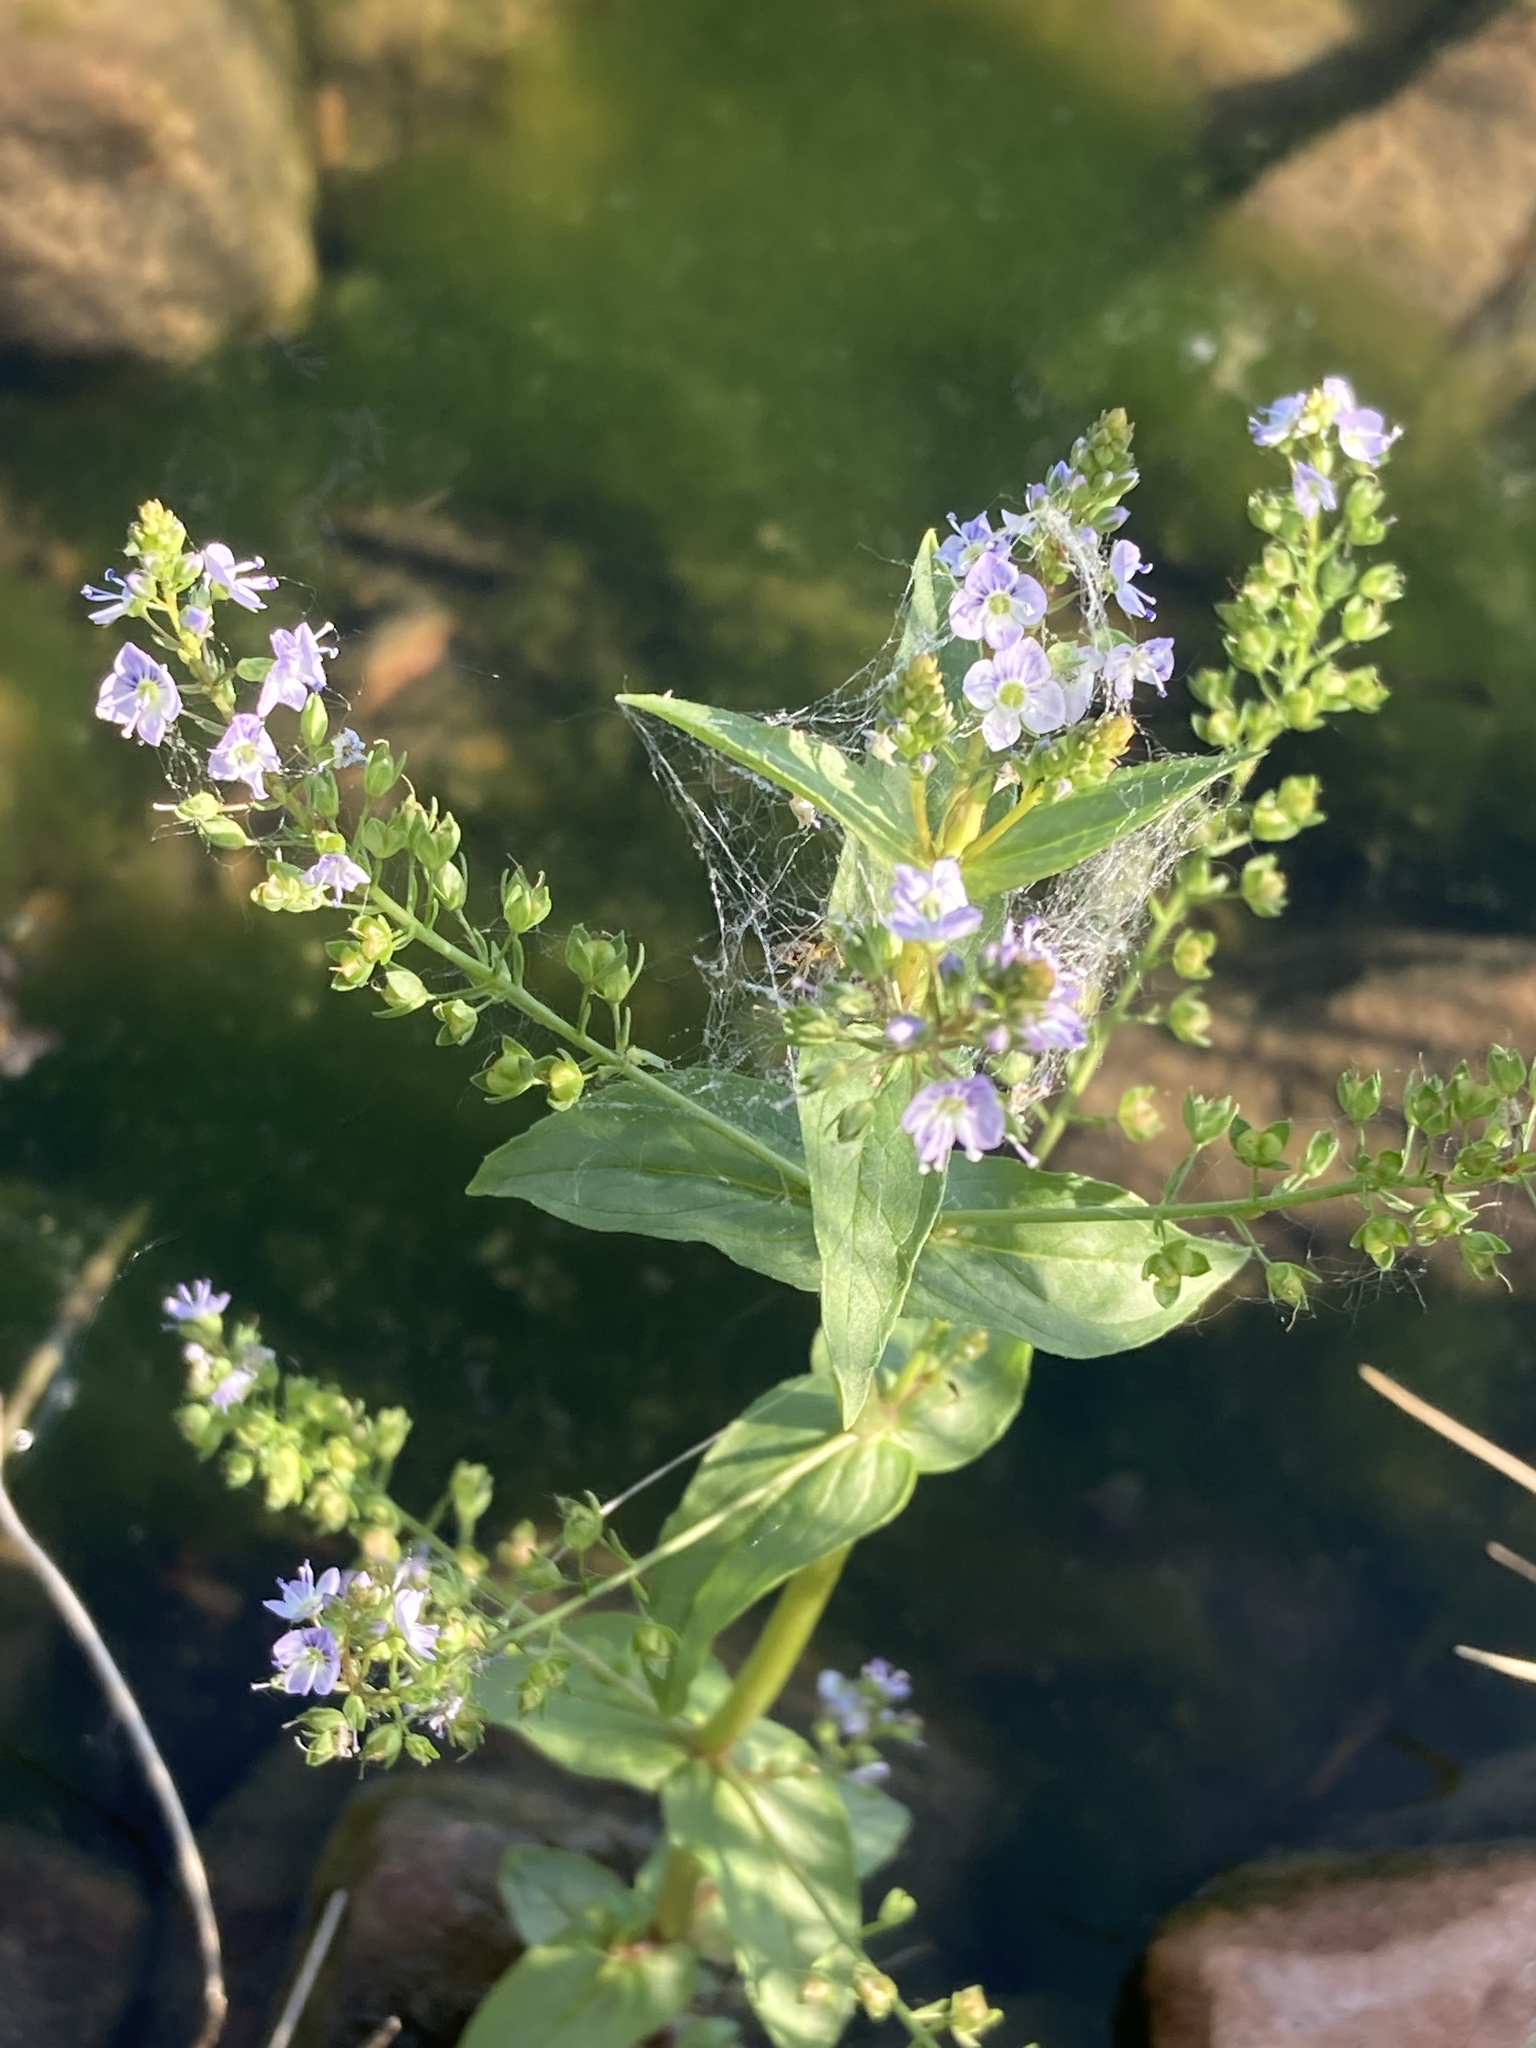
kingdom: Plantae
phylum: Tracheophyta
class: Magnoliopsida
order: Lamiales
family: Plantaginaceae
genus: Veronica
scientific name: Veronica anagallis-aquatica
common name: Water speedwell
